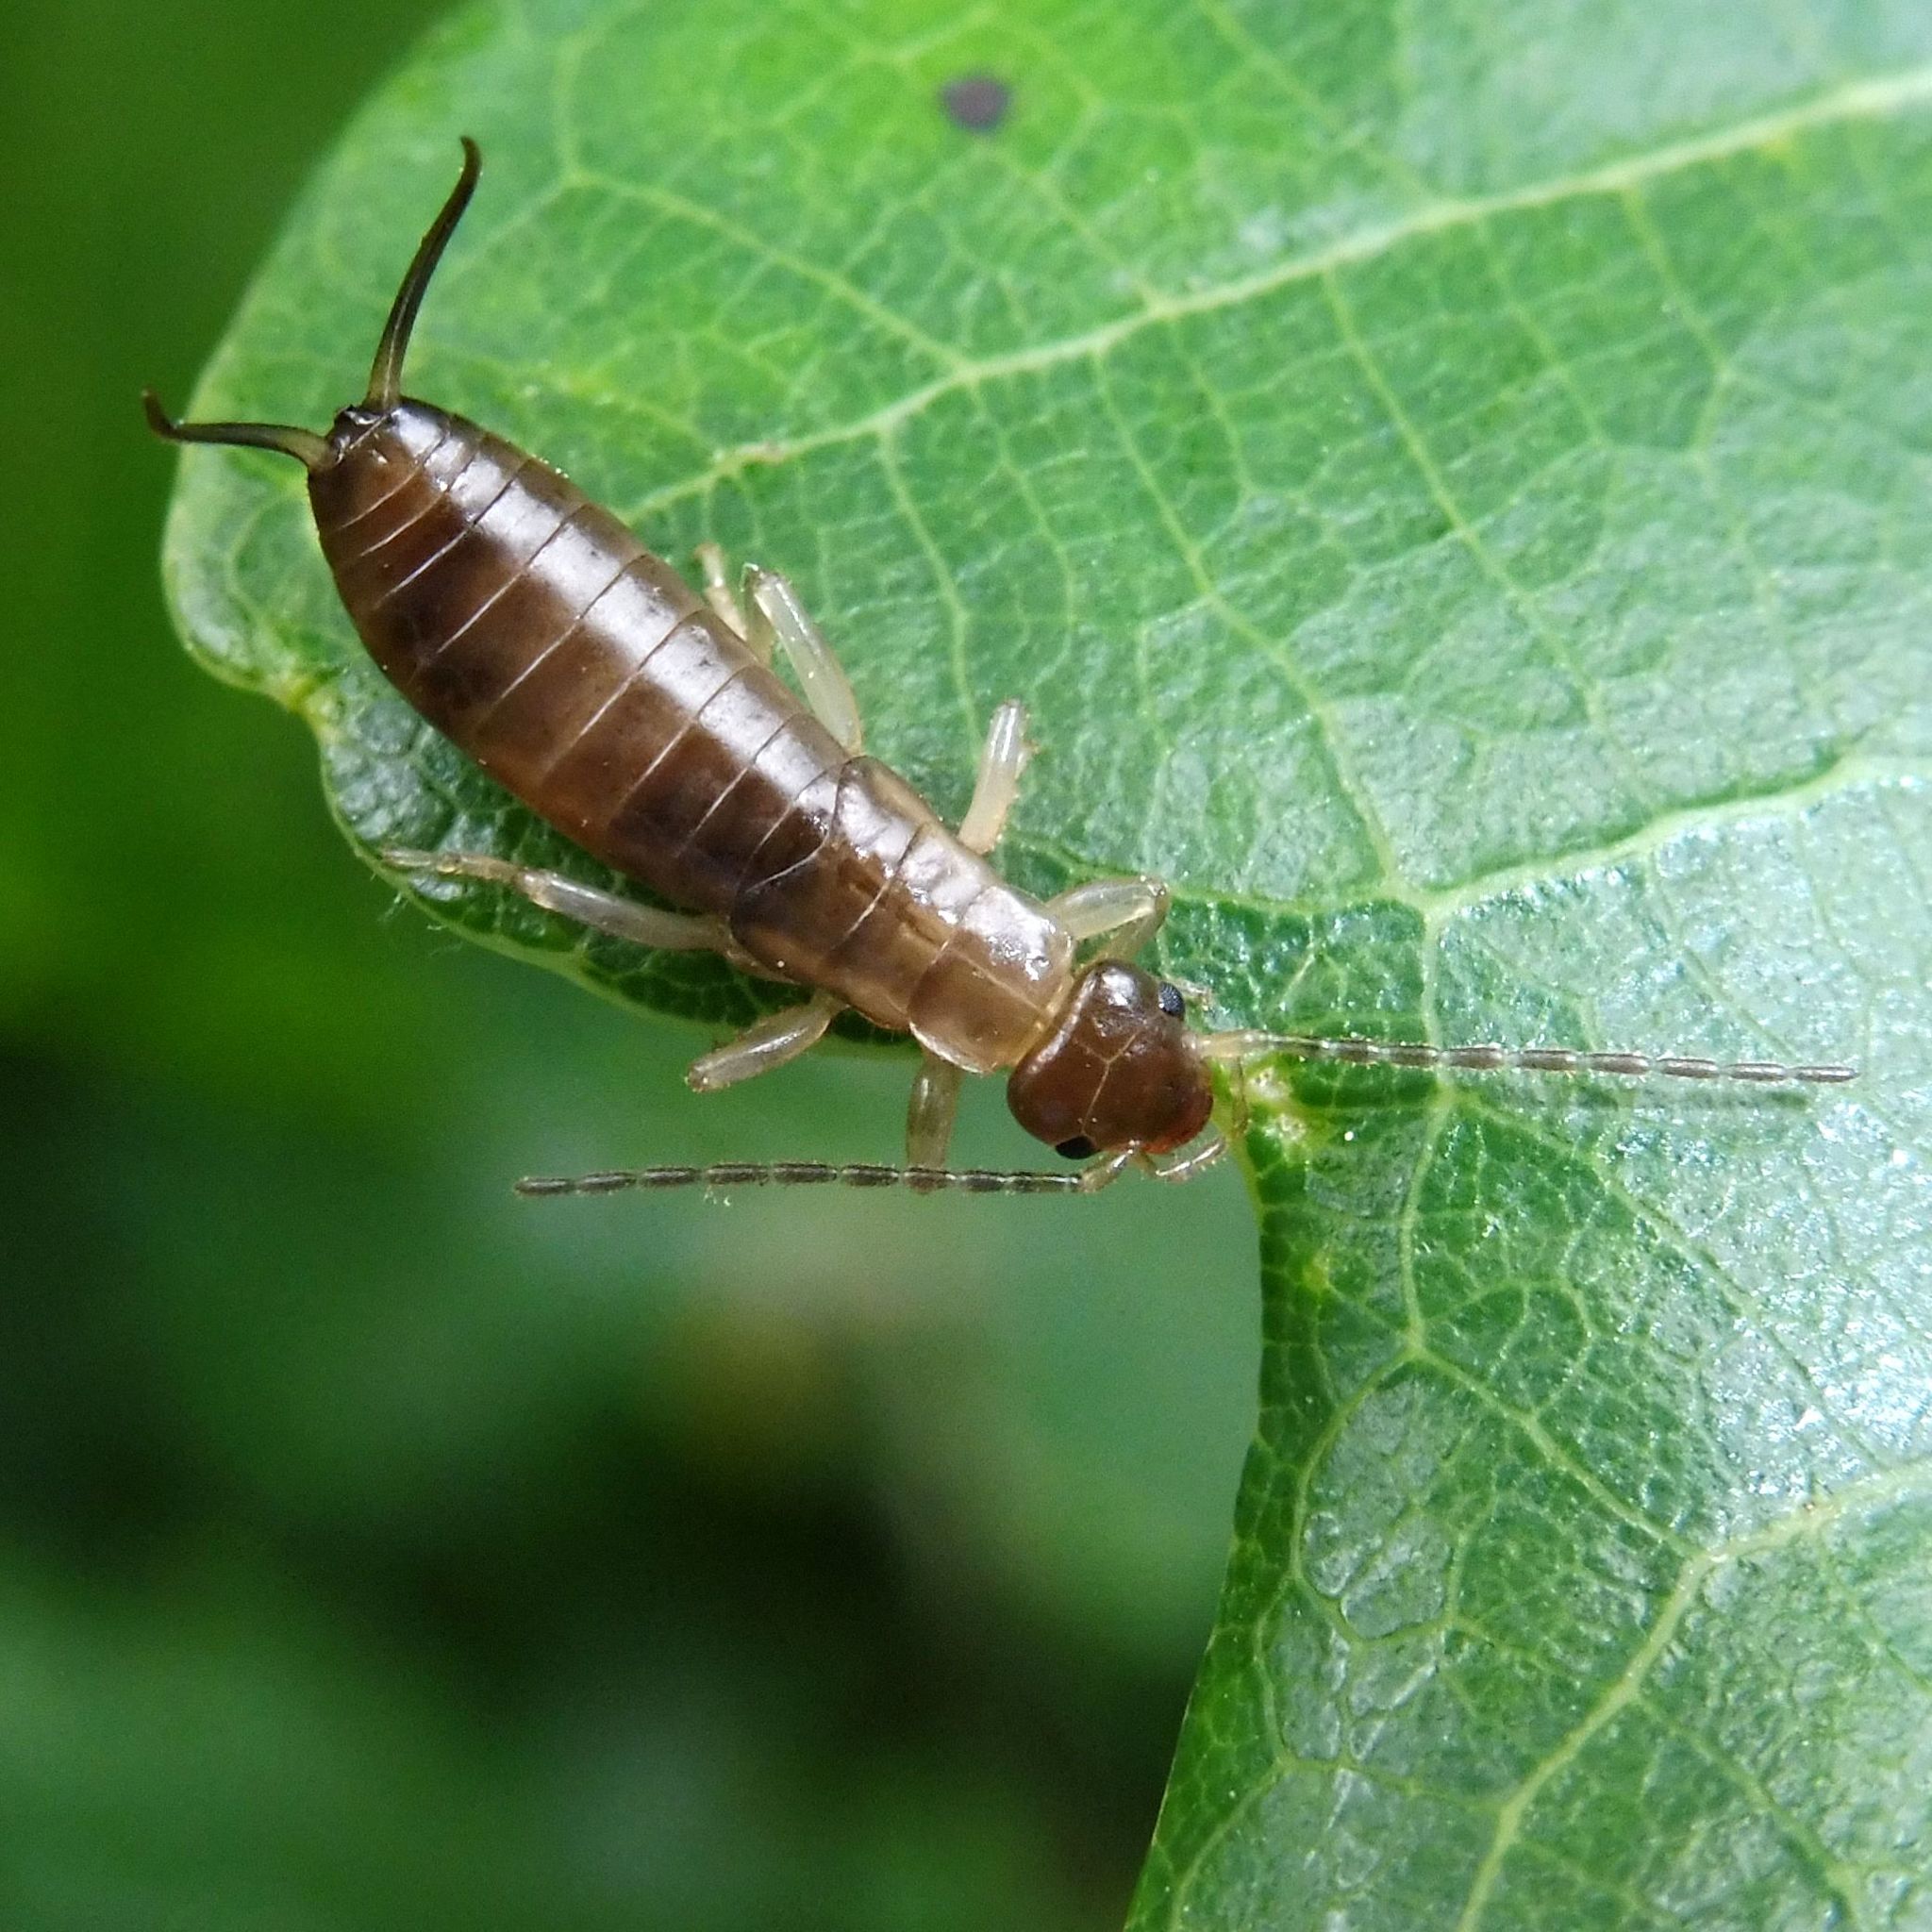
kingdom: Animalia
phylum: Arthropoda
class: Insecta
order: Dermaptera
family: Forficulidae
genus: Forficula
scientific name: Forficula
